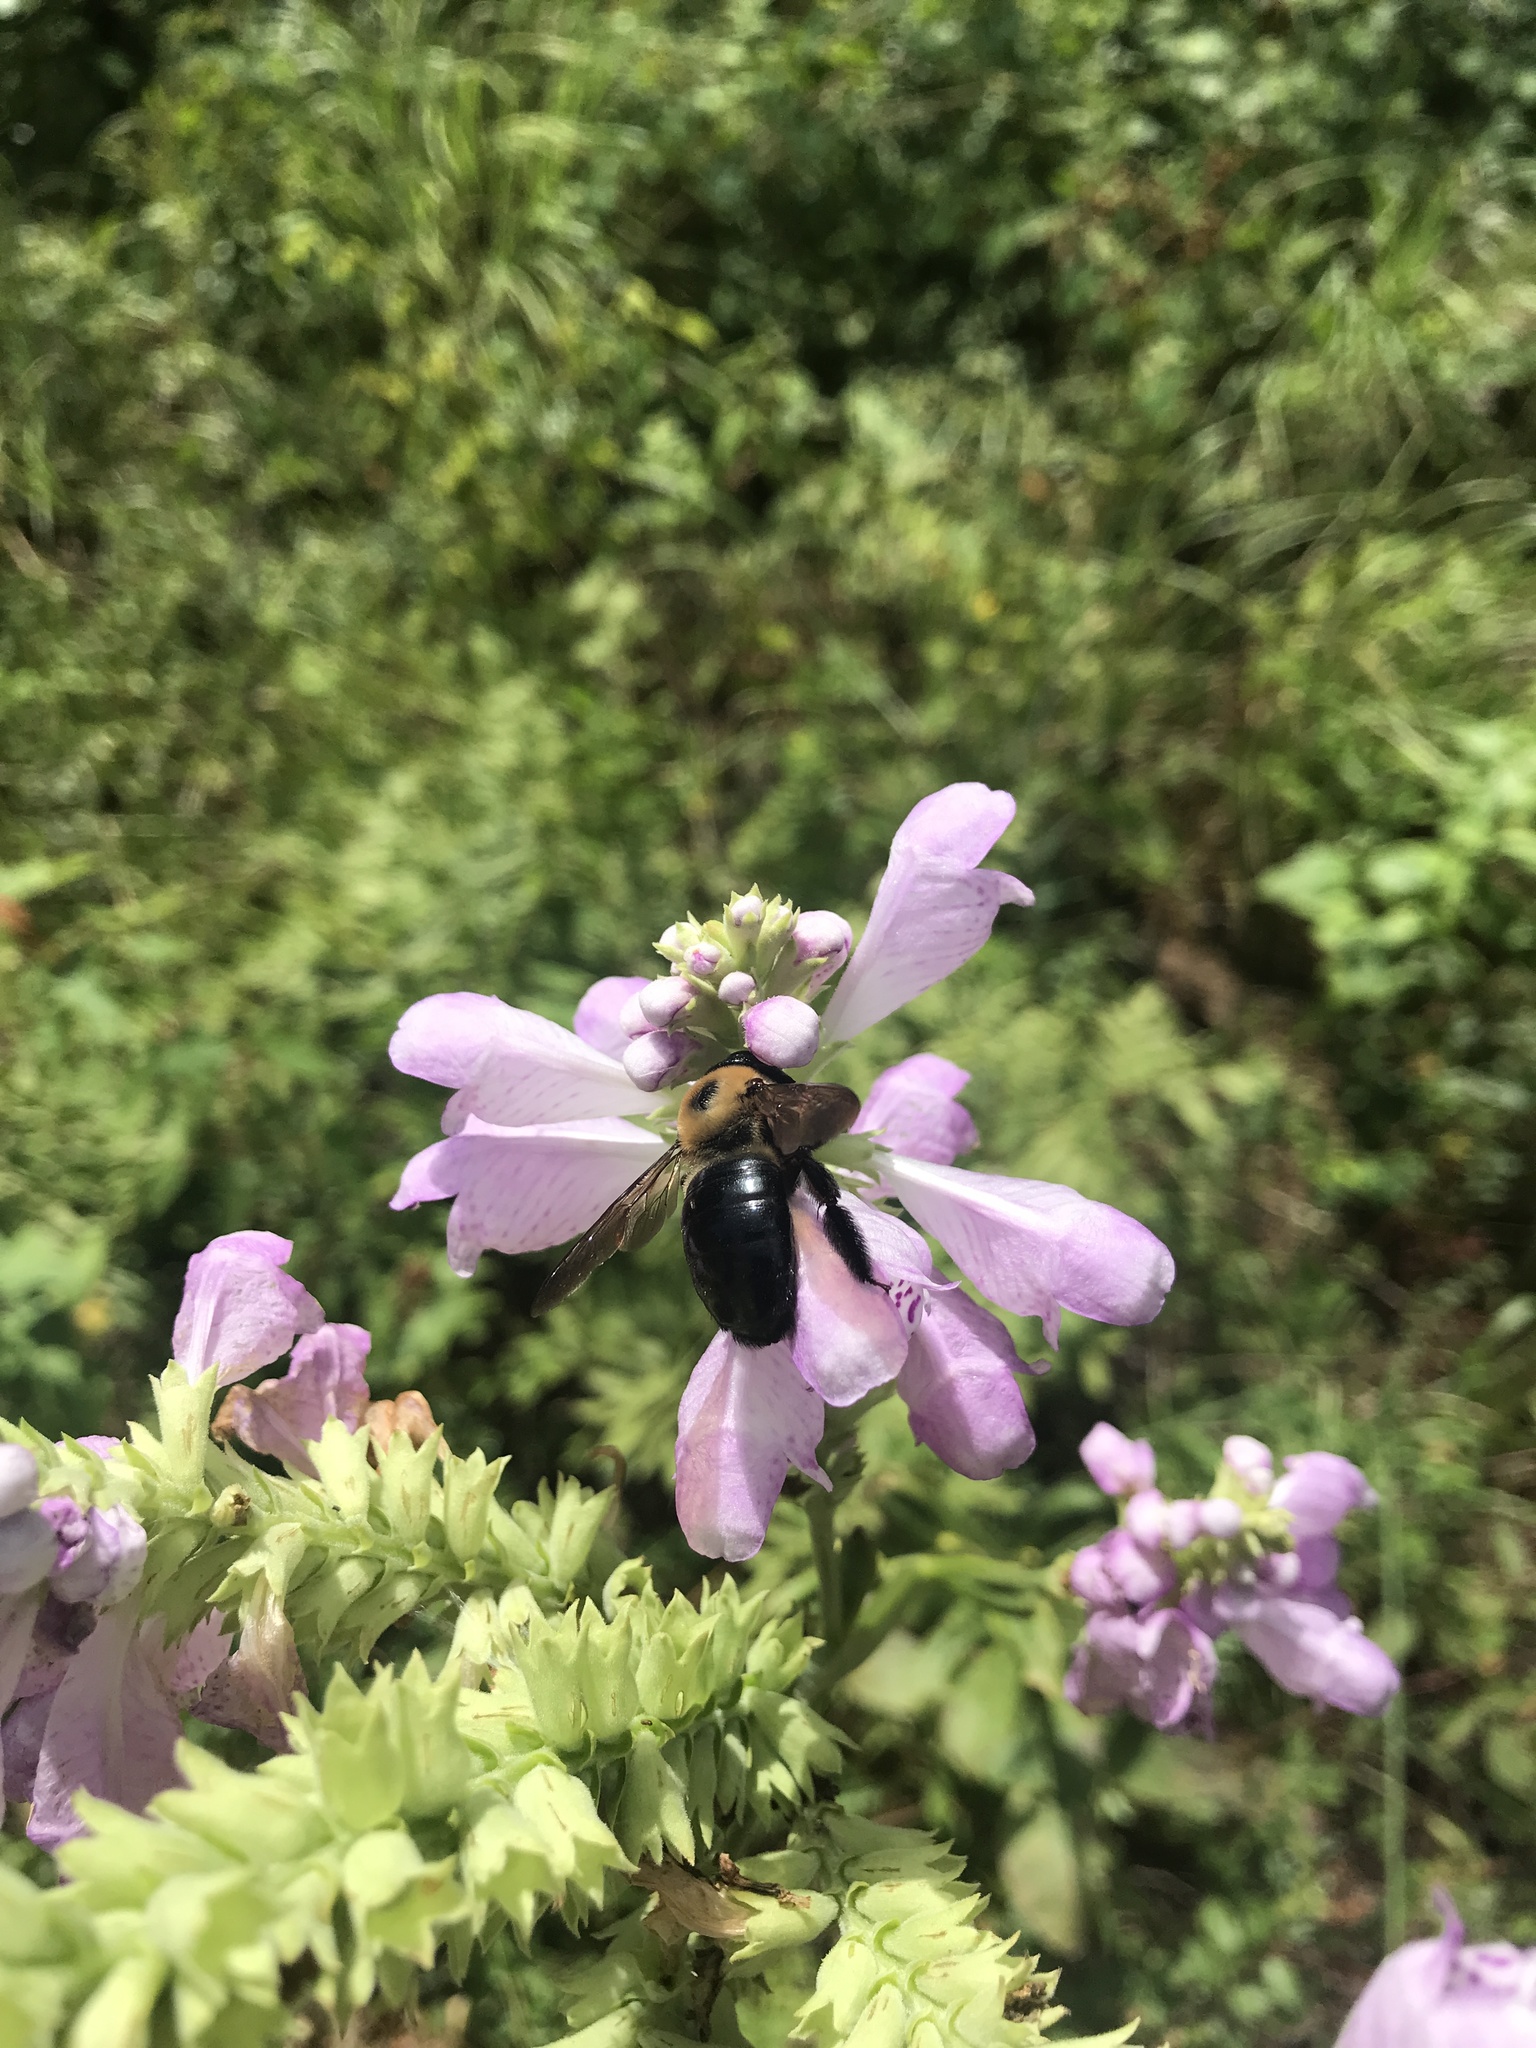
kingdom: Animalia
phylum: Arthropoda
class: Insecta
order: Hymenoptera
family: Apidae
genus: Xylocopa
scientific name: Xylocopa virginica
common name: Carpenter bee
